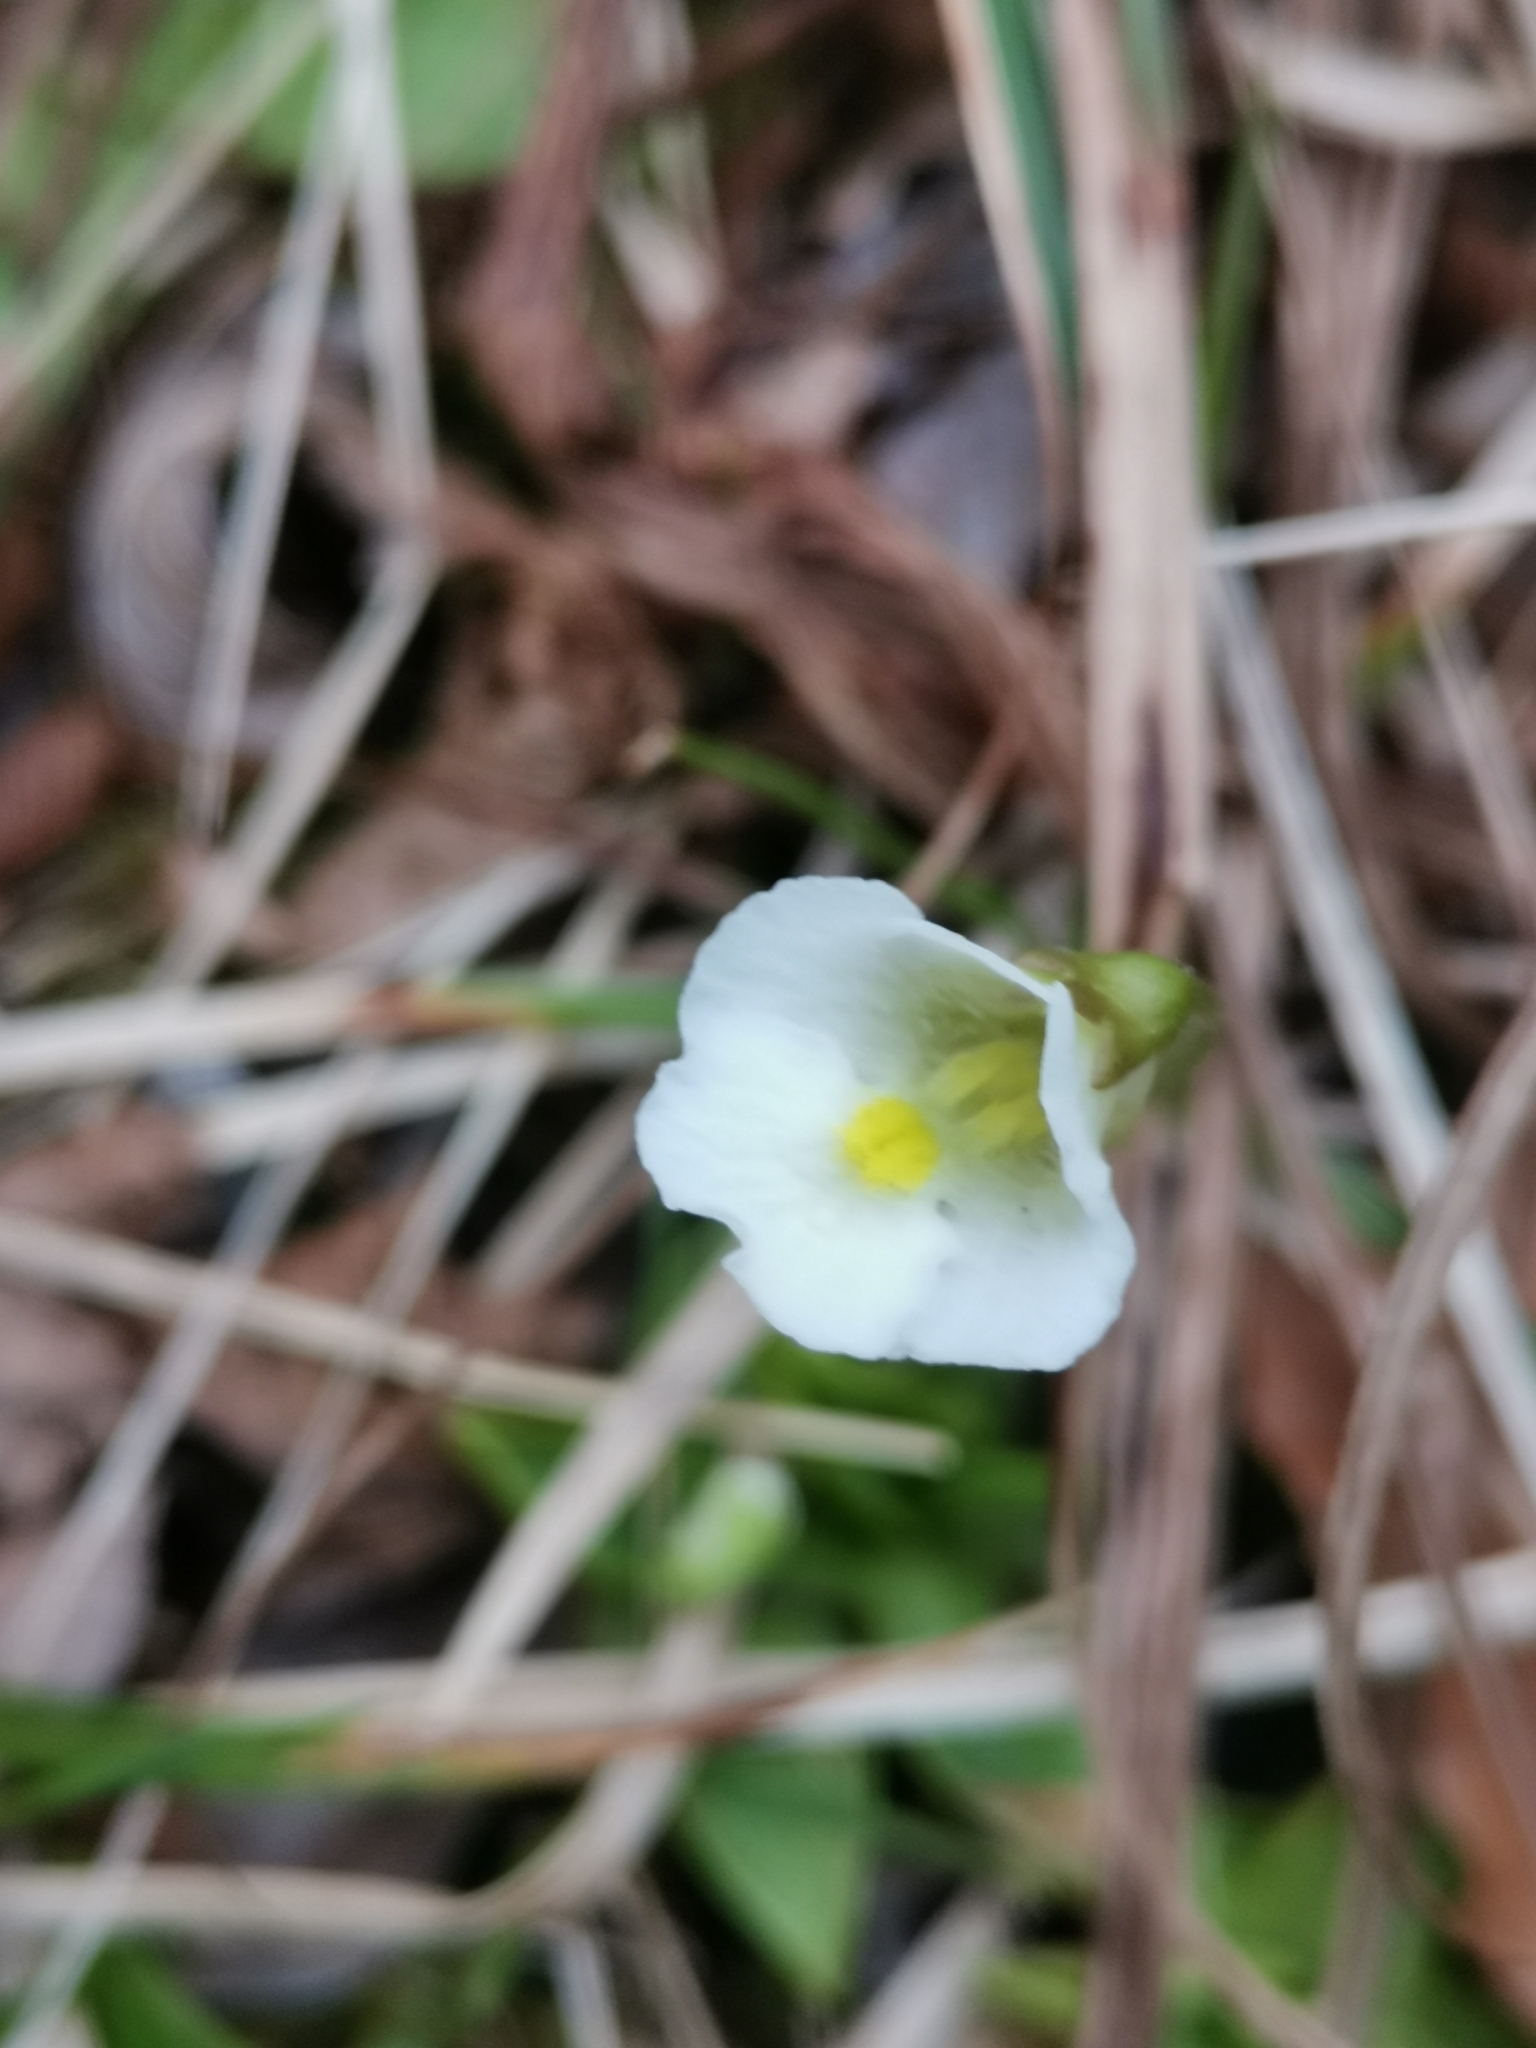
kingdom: Plantae
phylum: Tracheophyta
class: Magnoliopsida
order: Lamiales
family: Lentibulariaceae
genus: Pinguicula
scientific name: Pinguicula alpina
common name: Alpine butterwort
